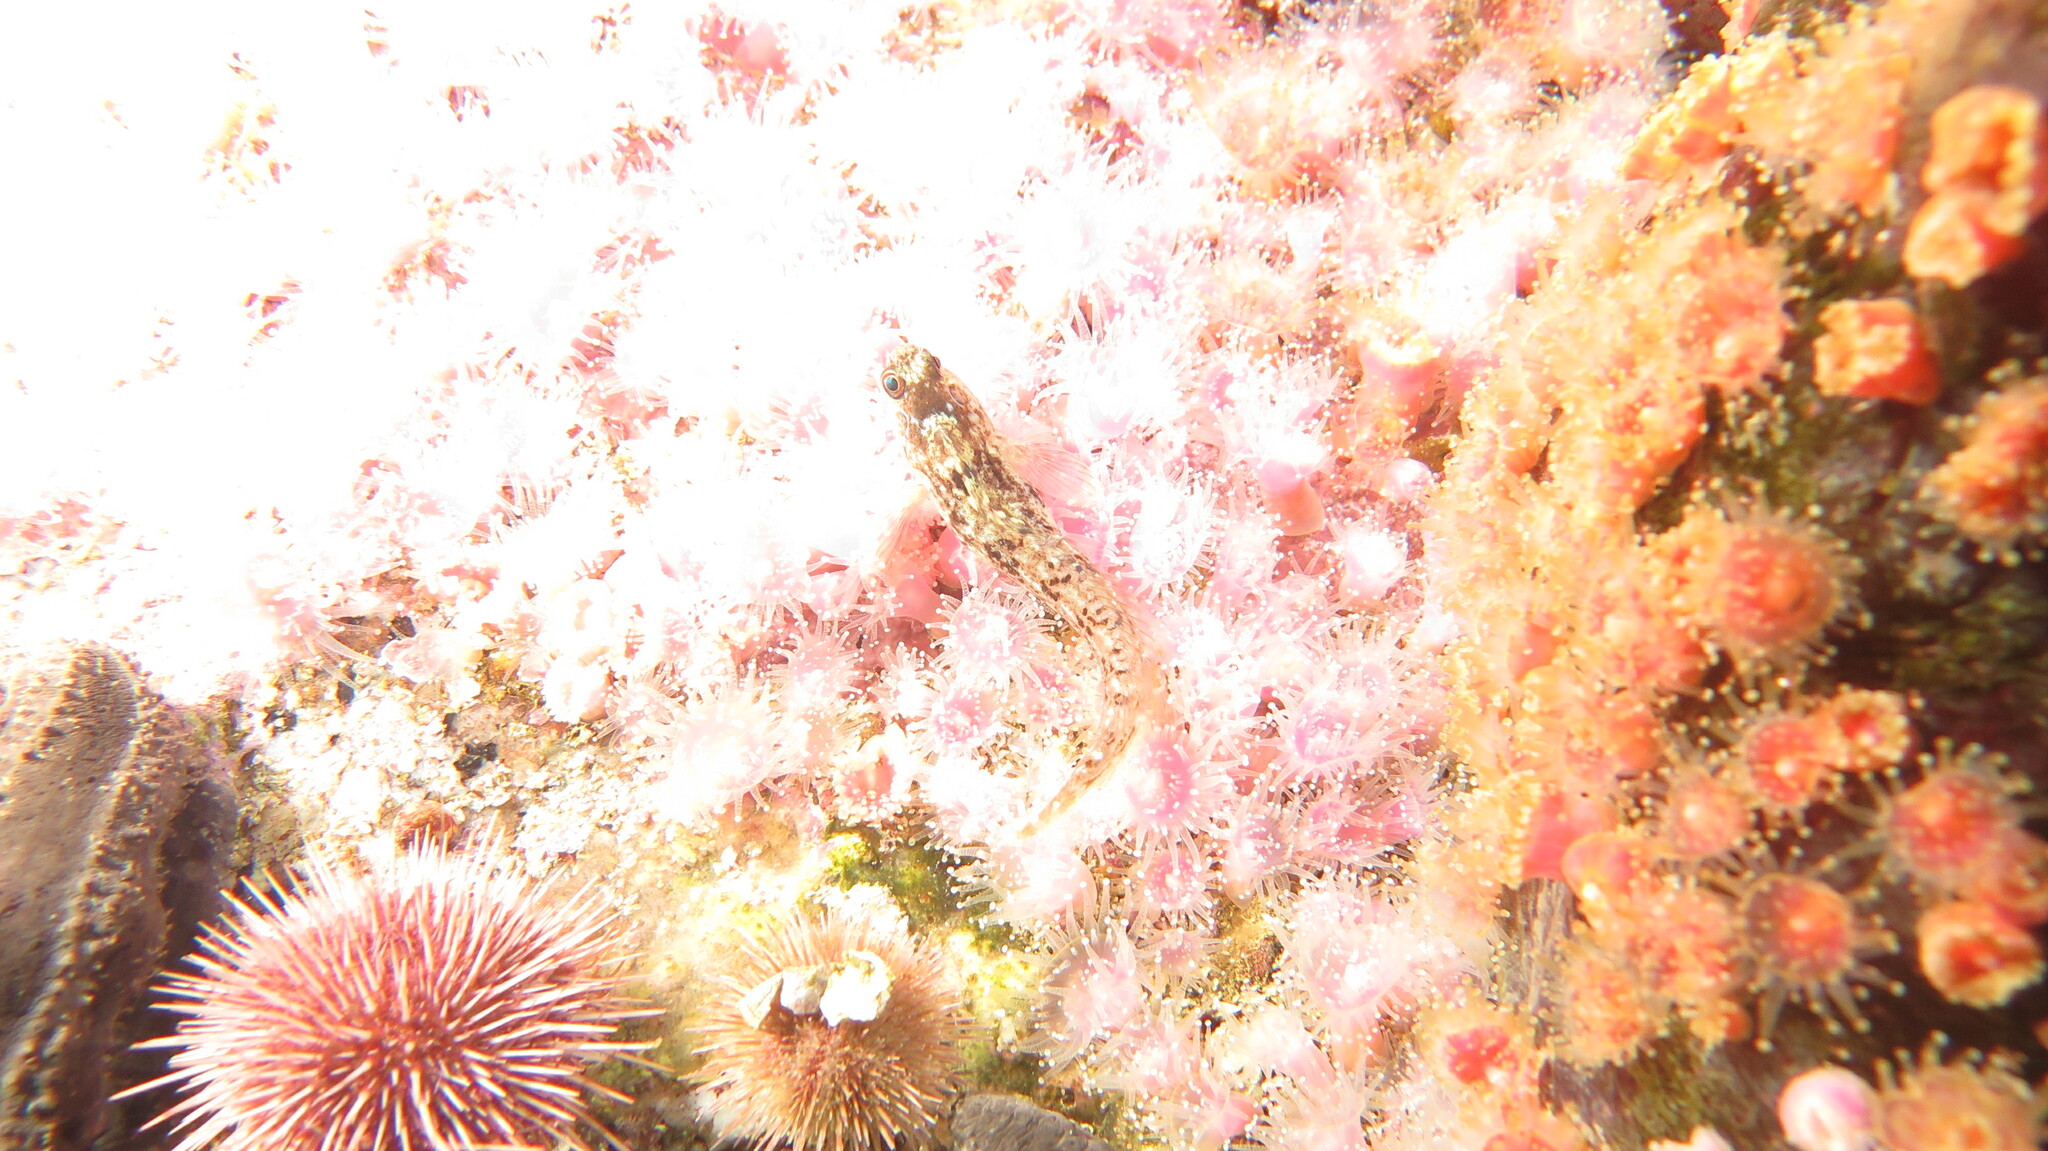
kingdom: Animalia
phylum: Chordata
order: Perciformes
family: Clinidae
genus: Clinus
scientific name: Clinus venustris
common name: Speckled klipfish
